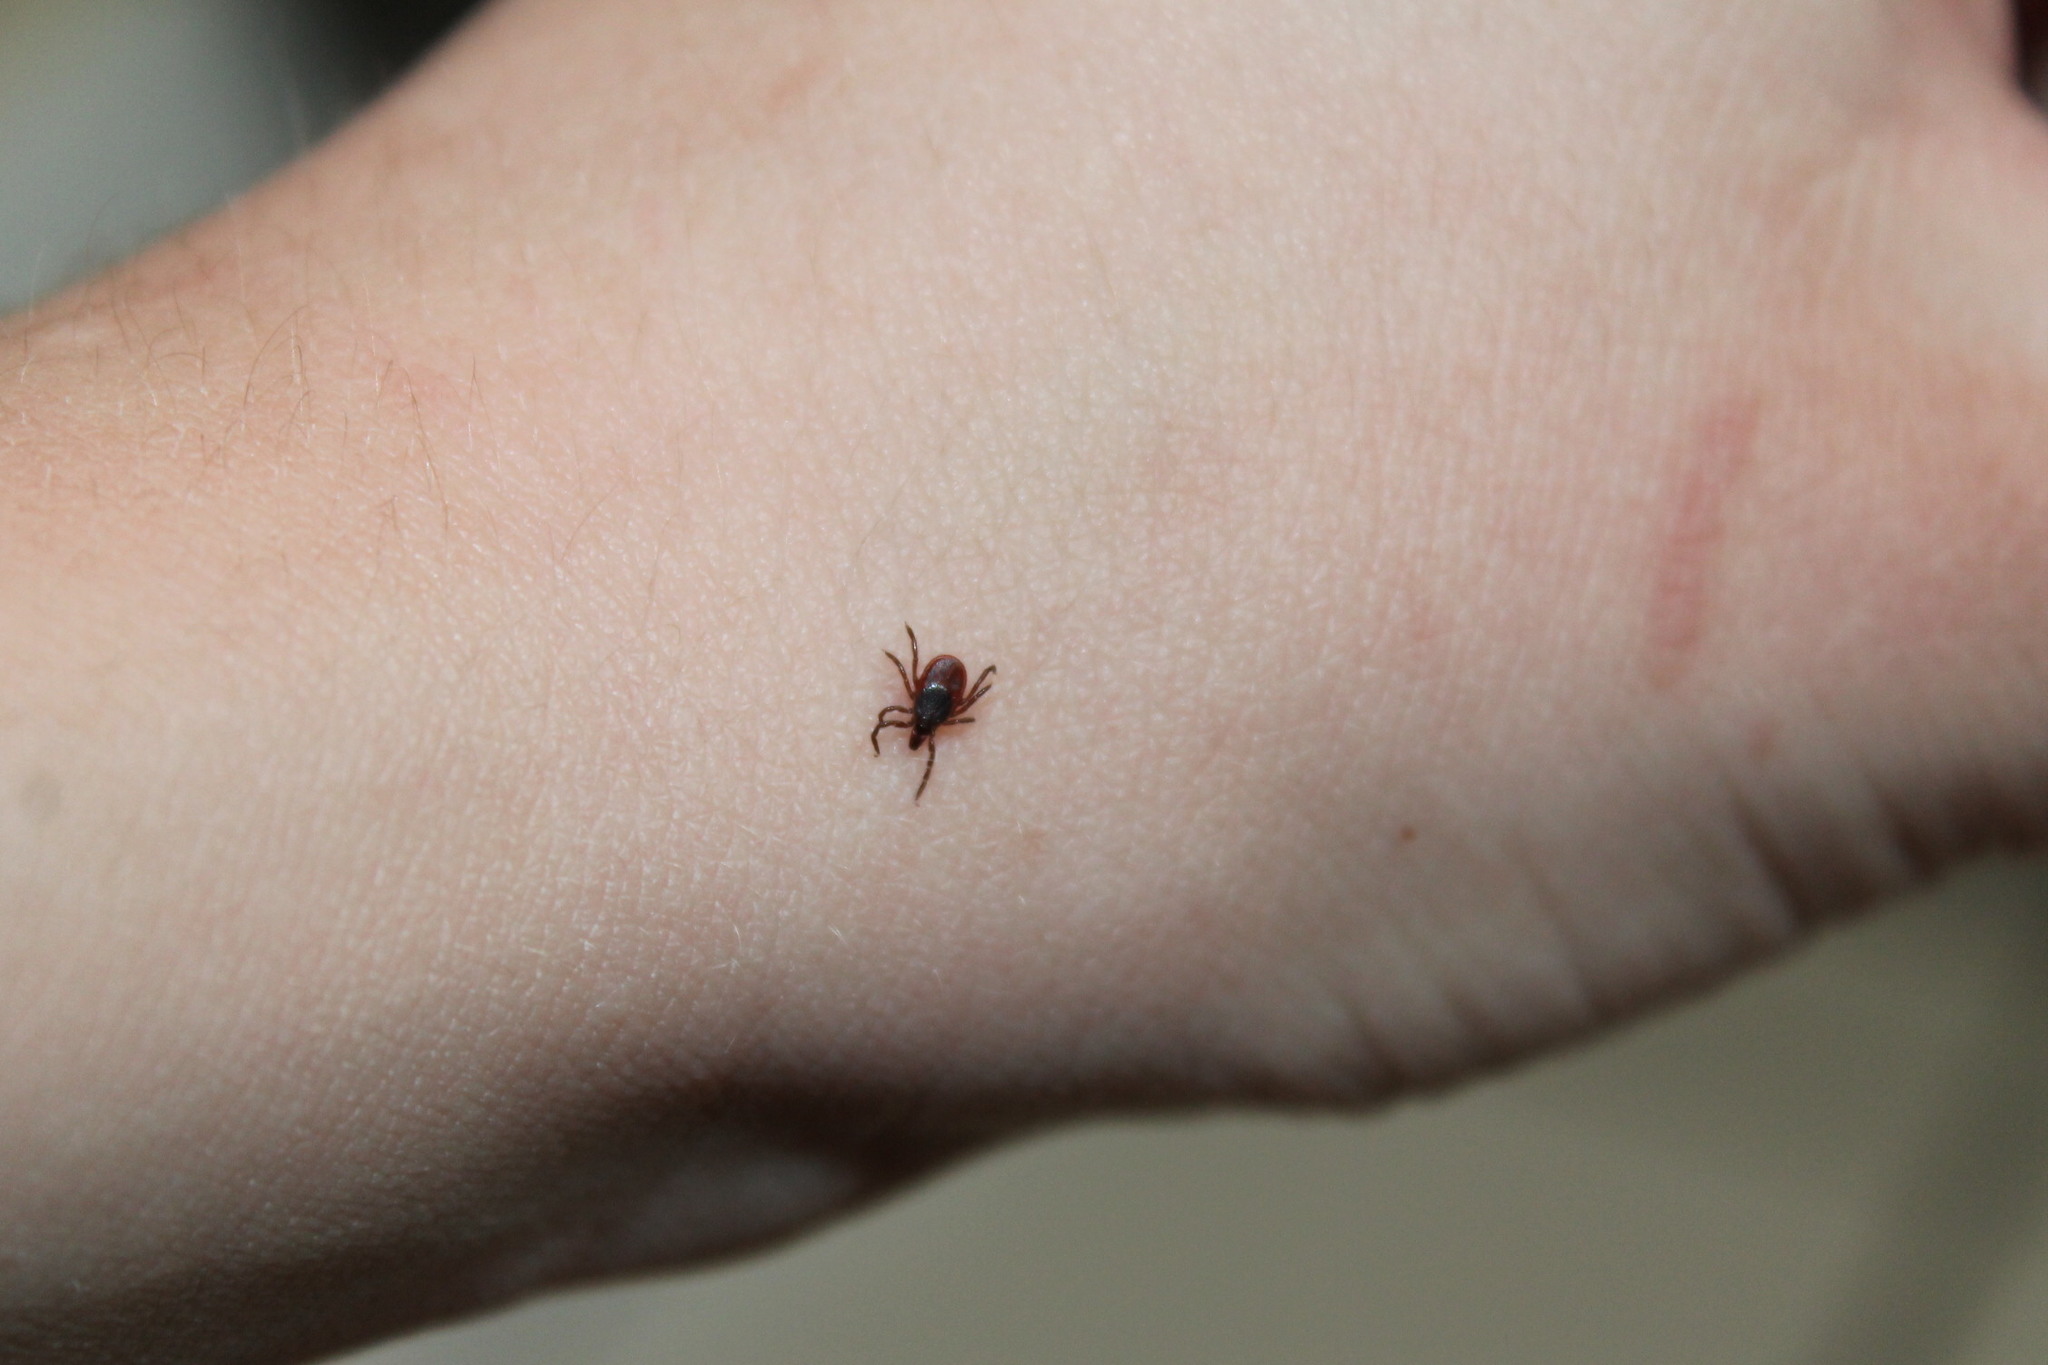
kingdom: Animalia
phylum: Arthropoda
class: Arachnida
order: Ixodida
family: Ixodidae
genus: Ixodes
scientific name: Ixodes scapularis
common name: Black legged tick
